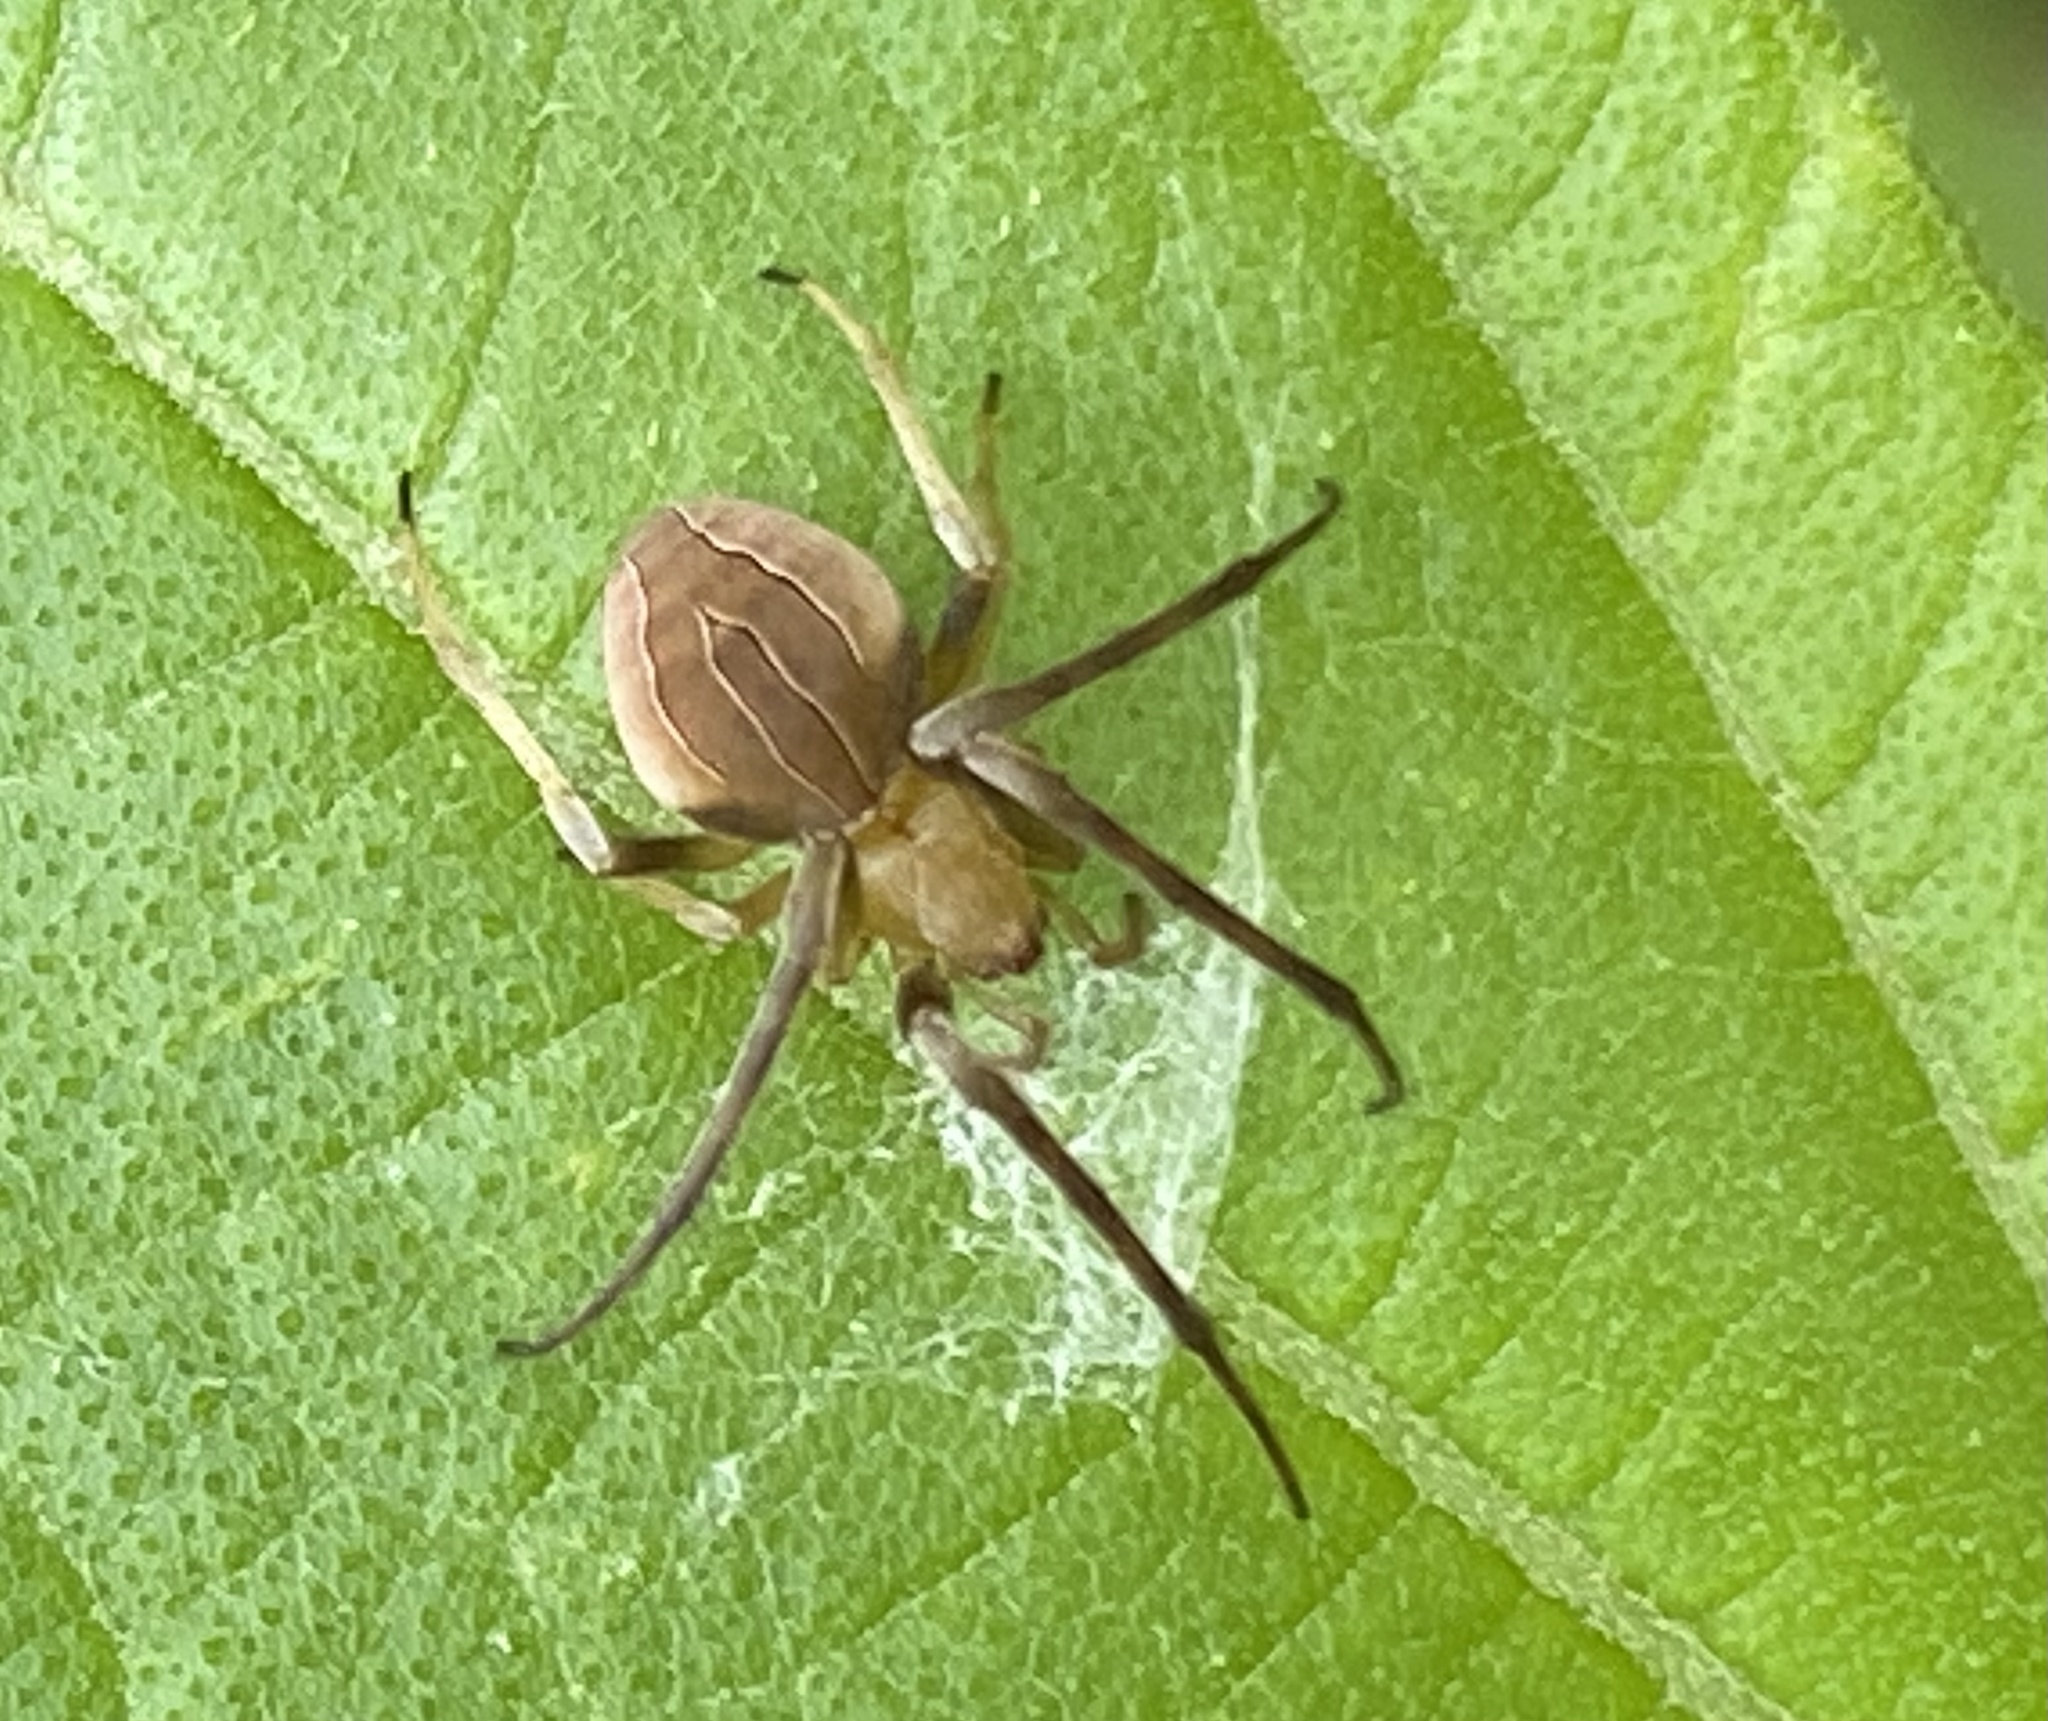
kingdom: Animalia
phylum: Arthropoda
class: Arachnida
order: Araneae
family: Araneidae
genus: Acacesia
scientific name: Acacesia hamata
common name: Orb weavers
